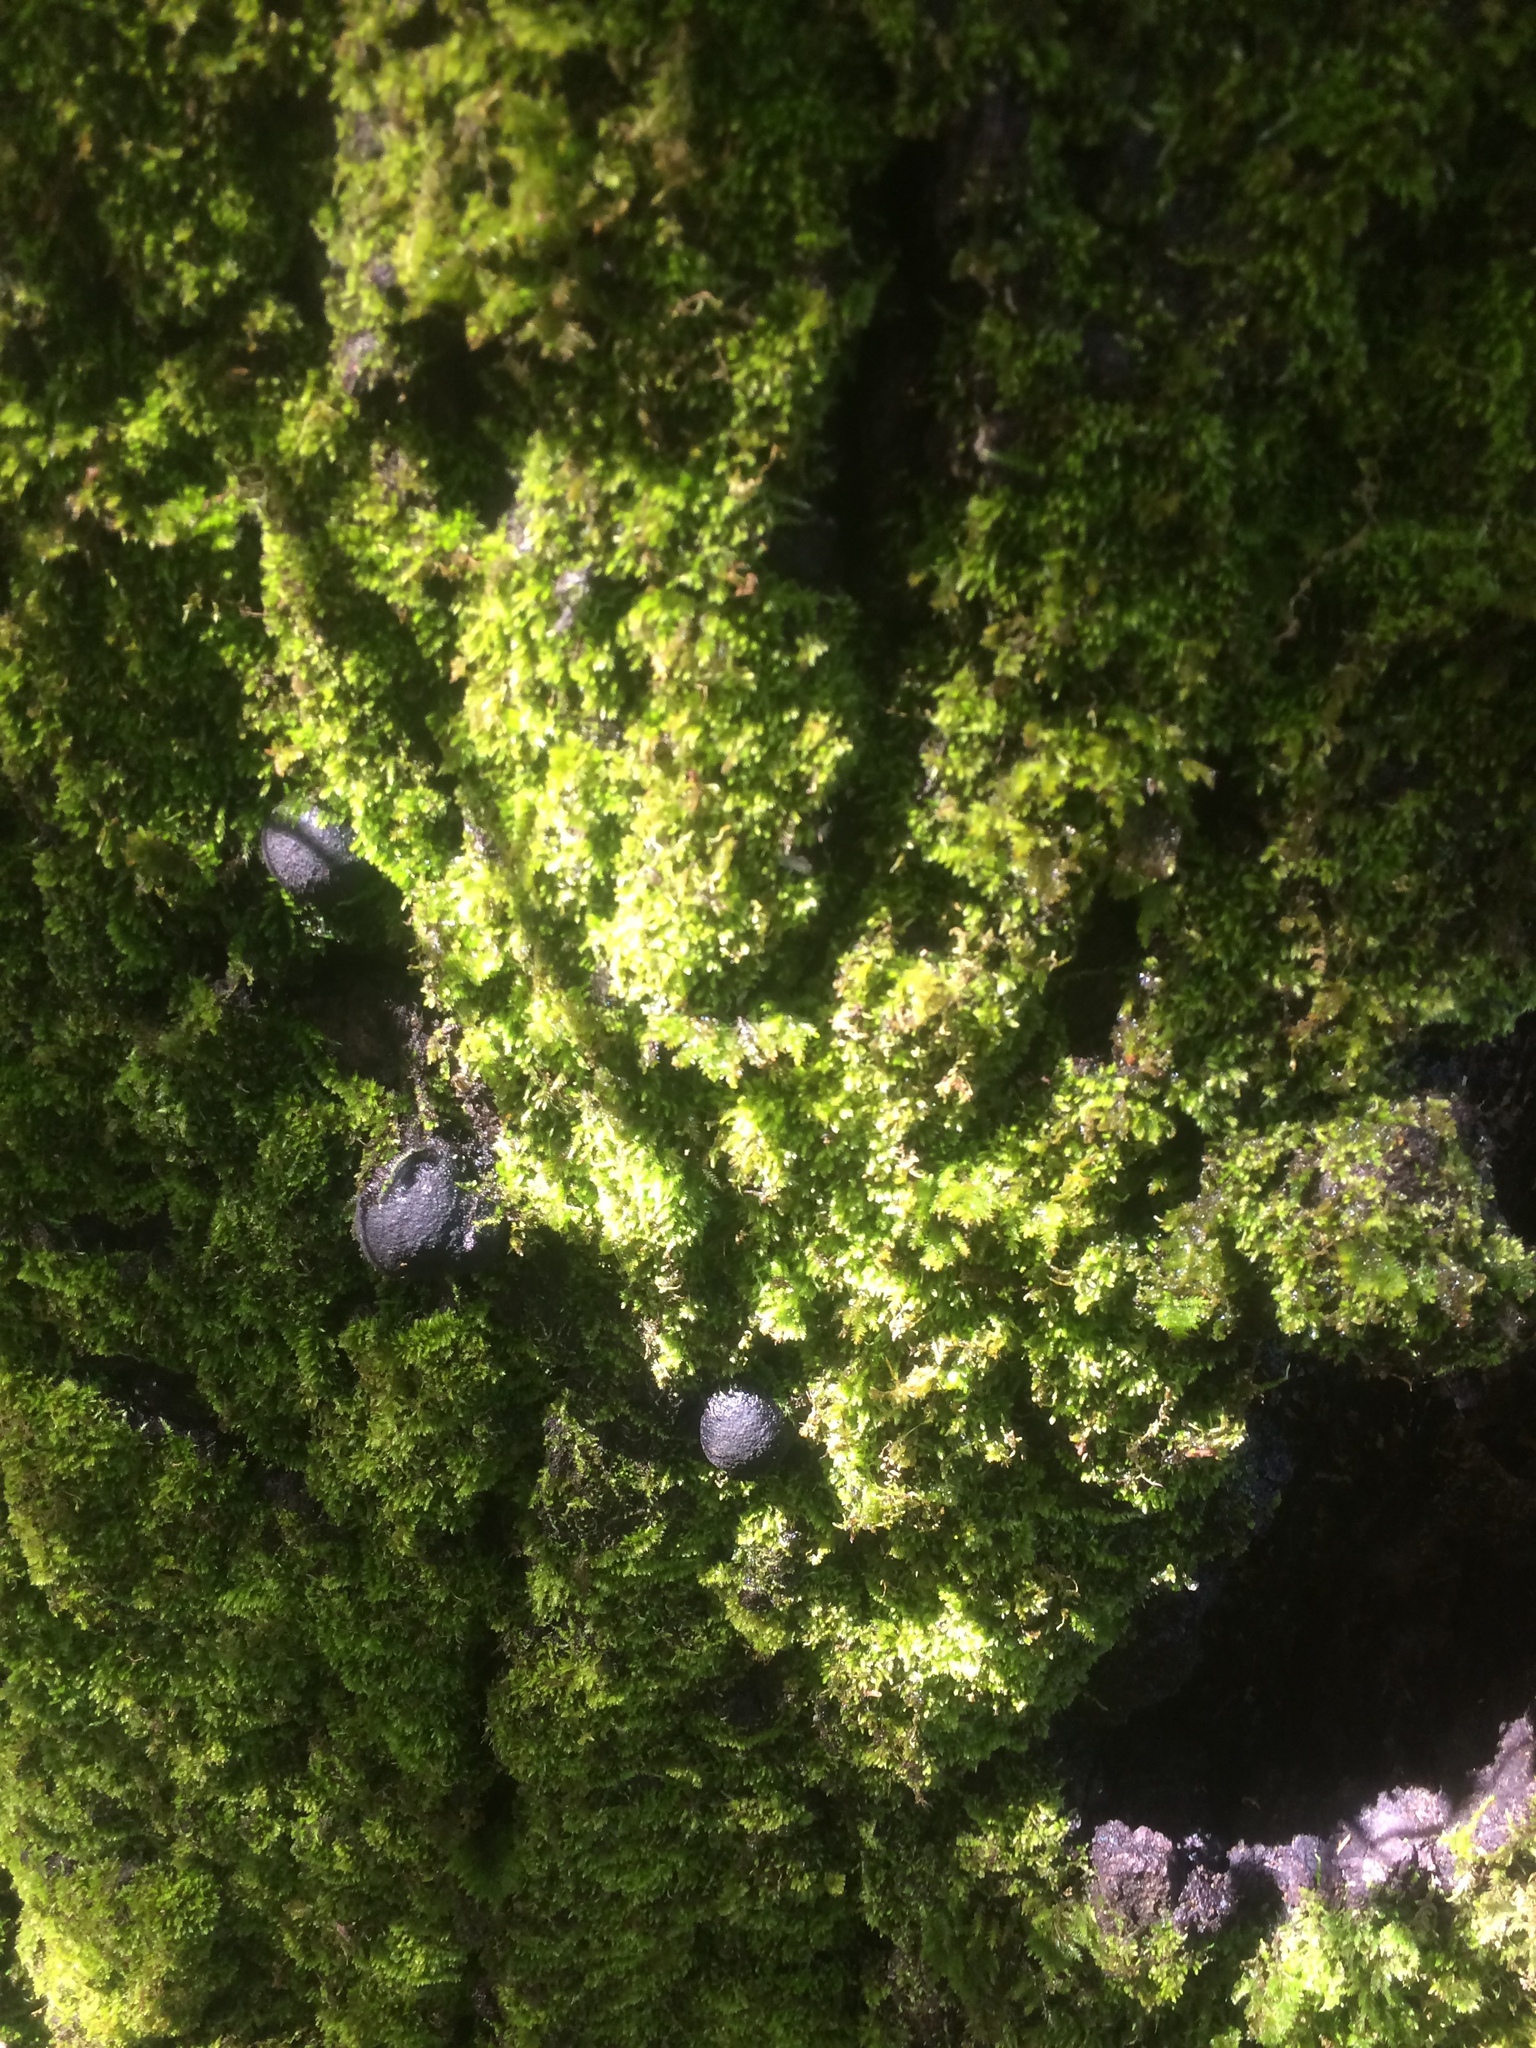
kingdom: Fungi
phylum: Ascomycota
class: Sordariomycetes
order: Xylariales
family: Hypoxylaceae
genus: Annulohypoxylon
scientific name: Annulohypoxylon thouarsianum
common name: Cramp balls
